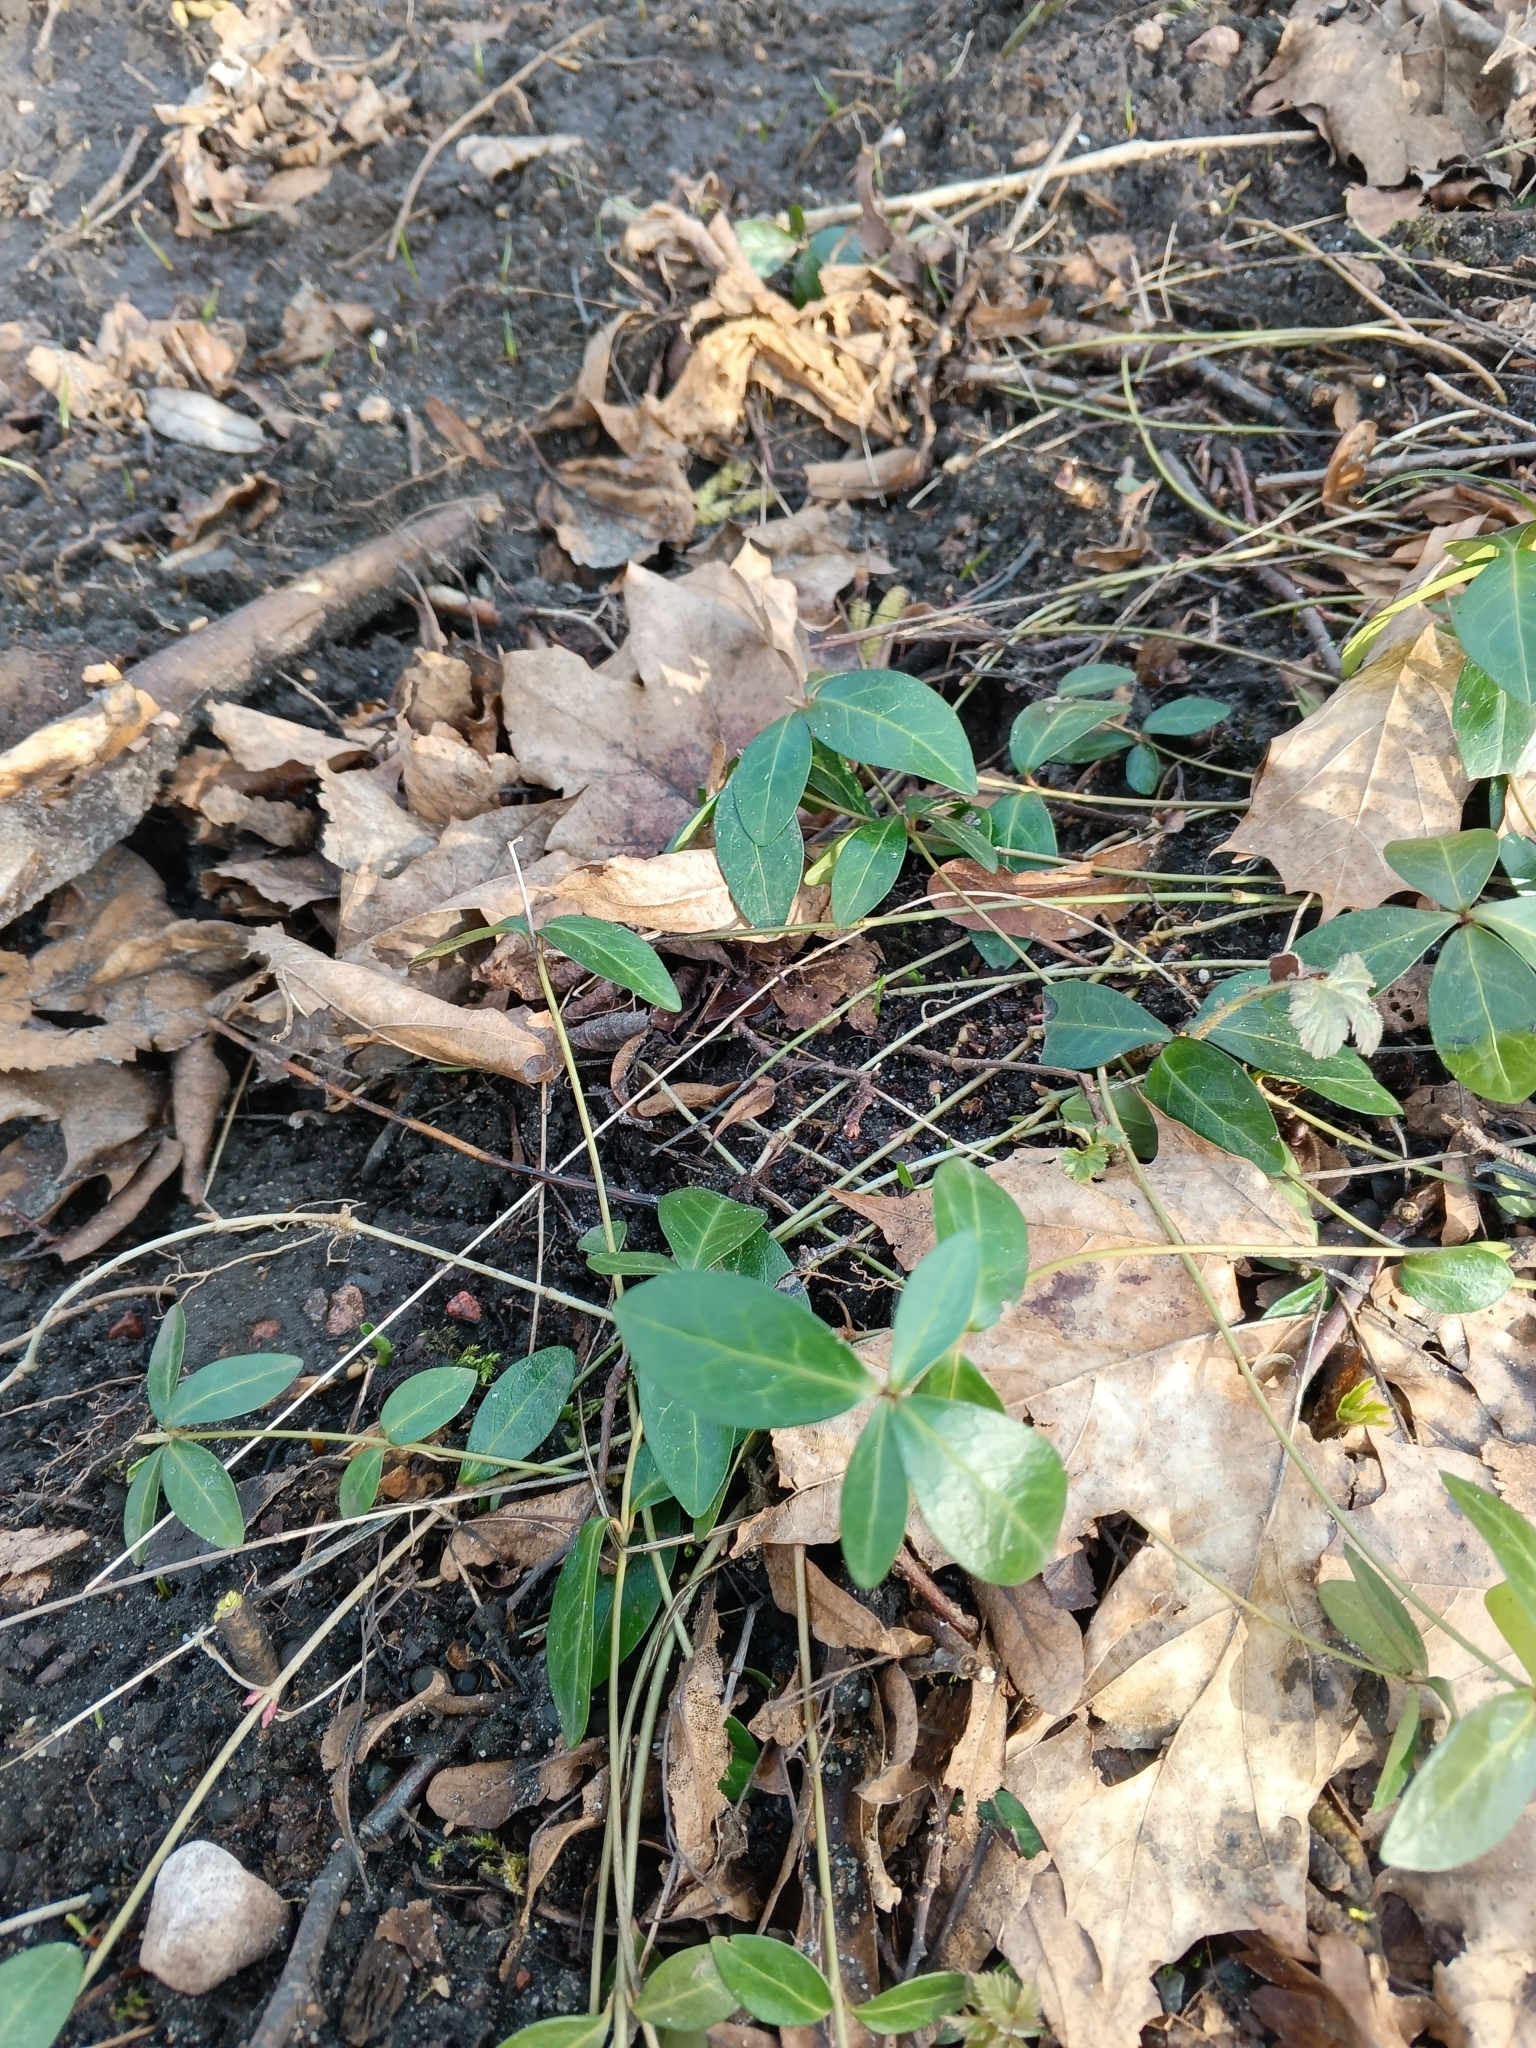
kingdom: Plantae
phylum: Tracheophyta
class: Magnoliopsida
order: Gentianales
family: Apocynaceae
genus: Vinca
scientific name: Vinca minor
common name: Lesser periwinkle
